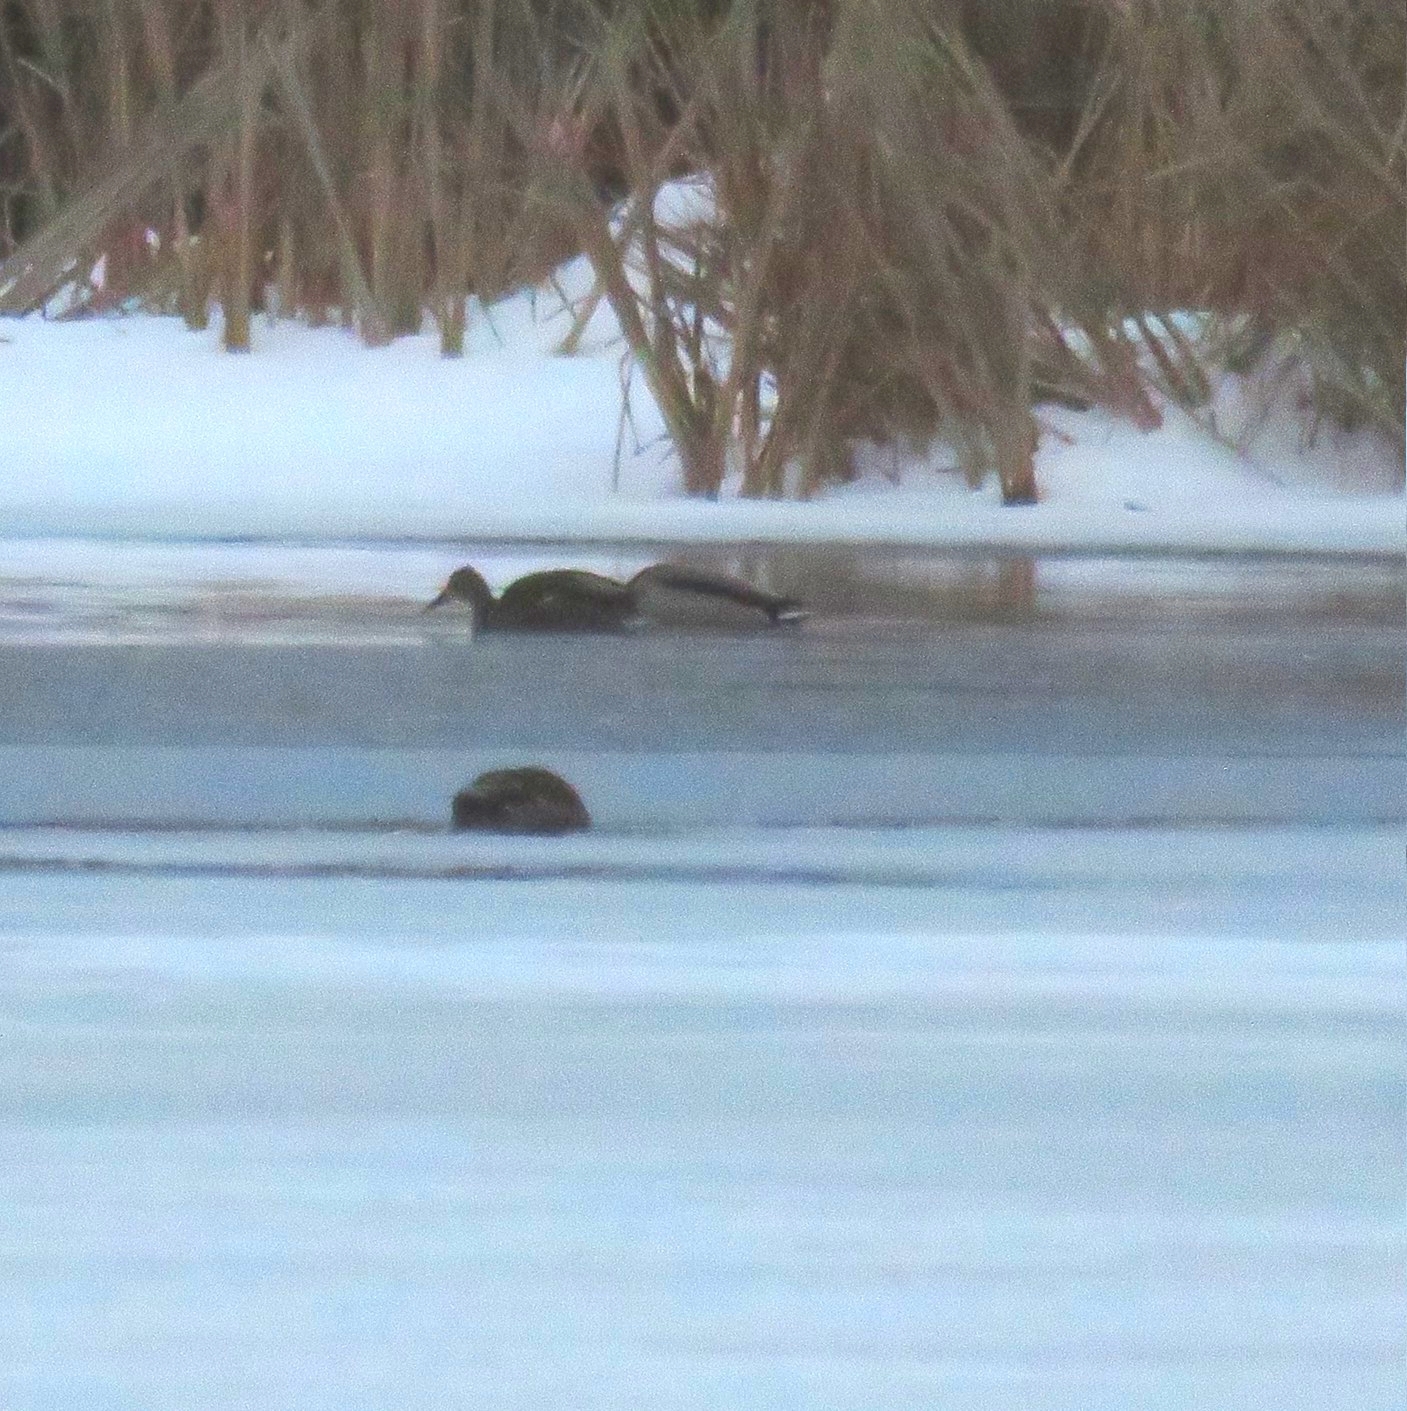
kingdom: Animalia
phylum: Chordata
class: Aves
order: Anseriformes
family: Anatidae
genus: Anas
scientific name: Anas platyrhynchos
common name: Mallard
